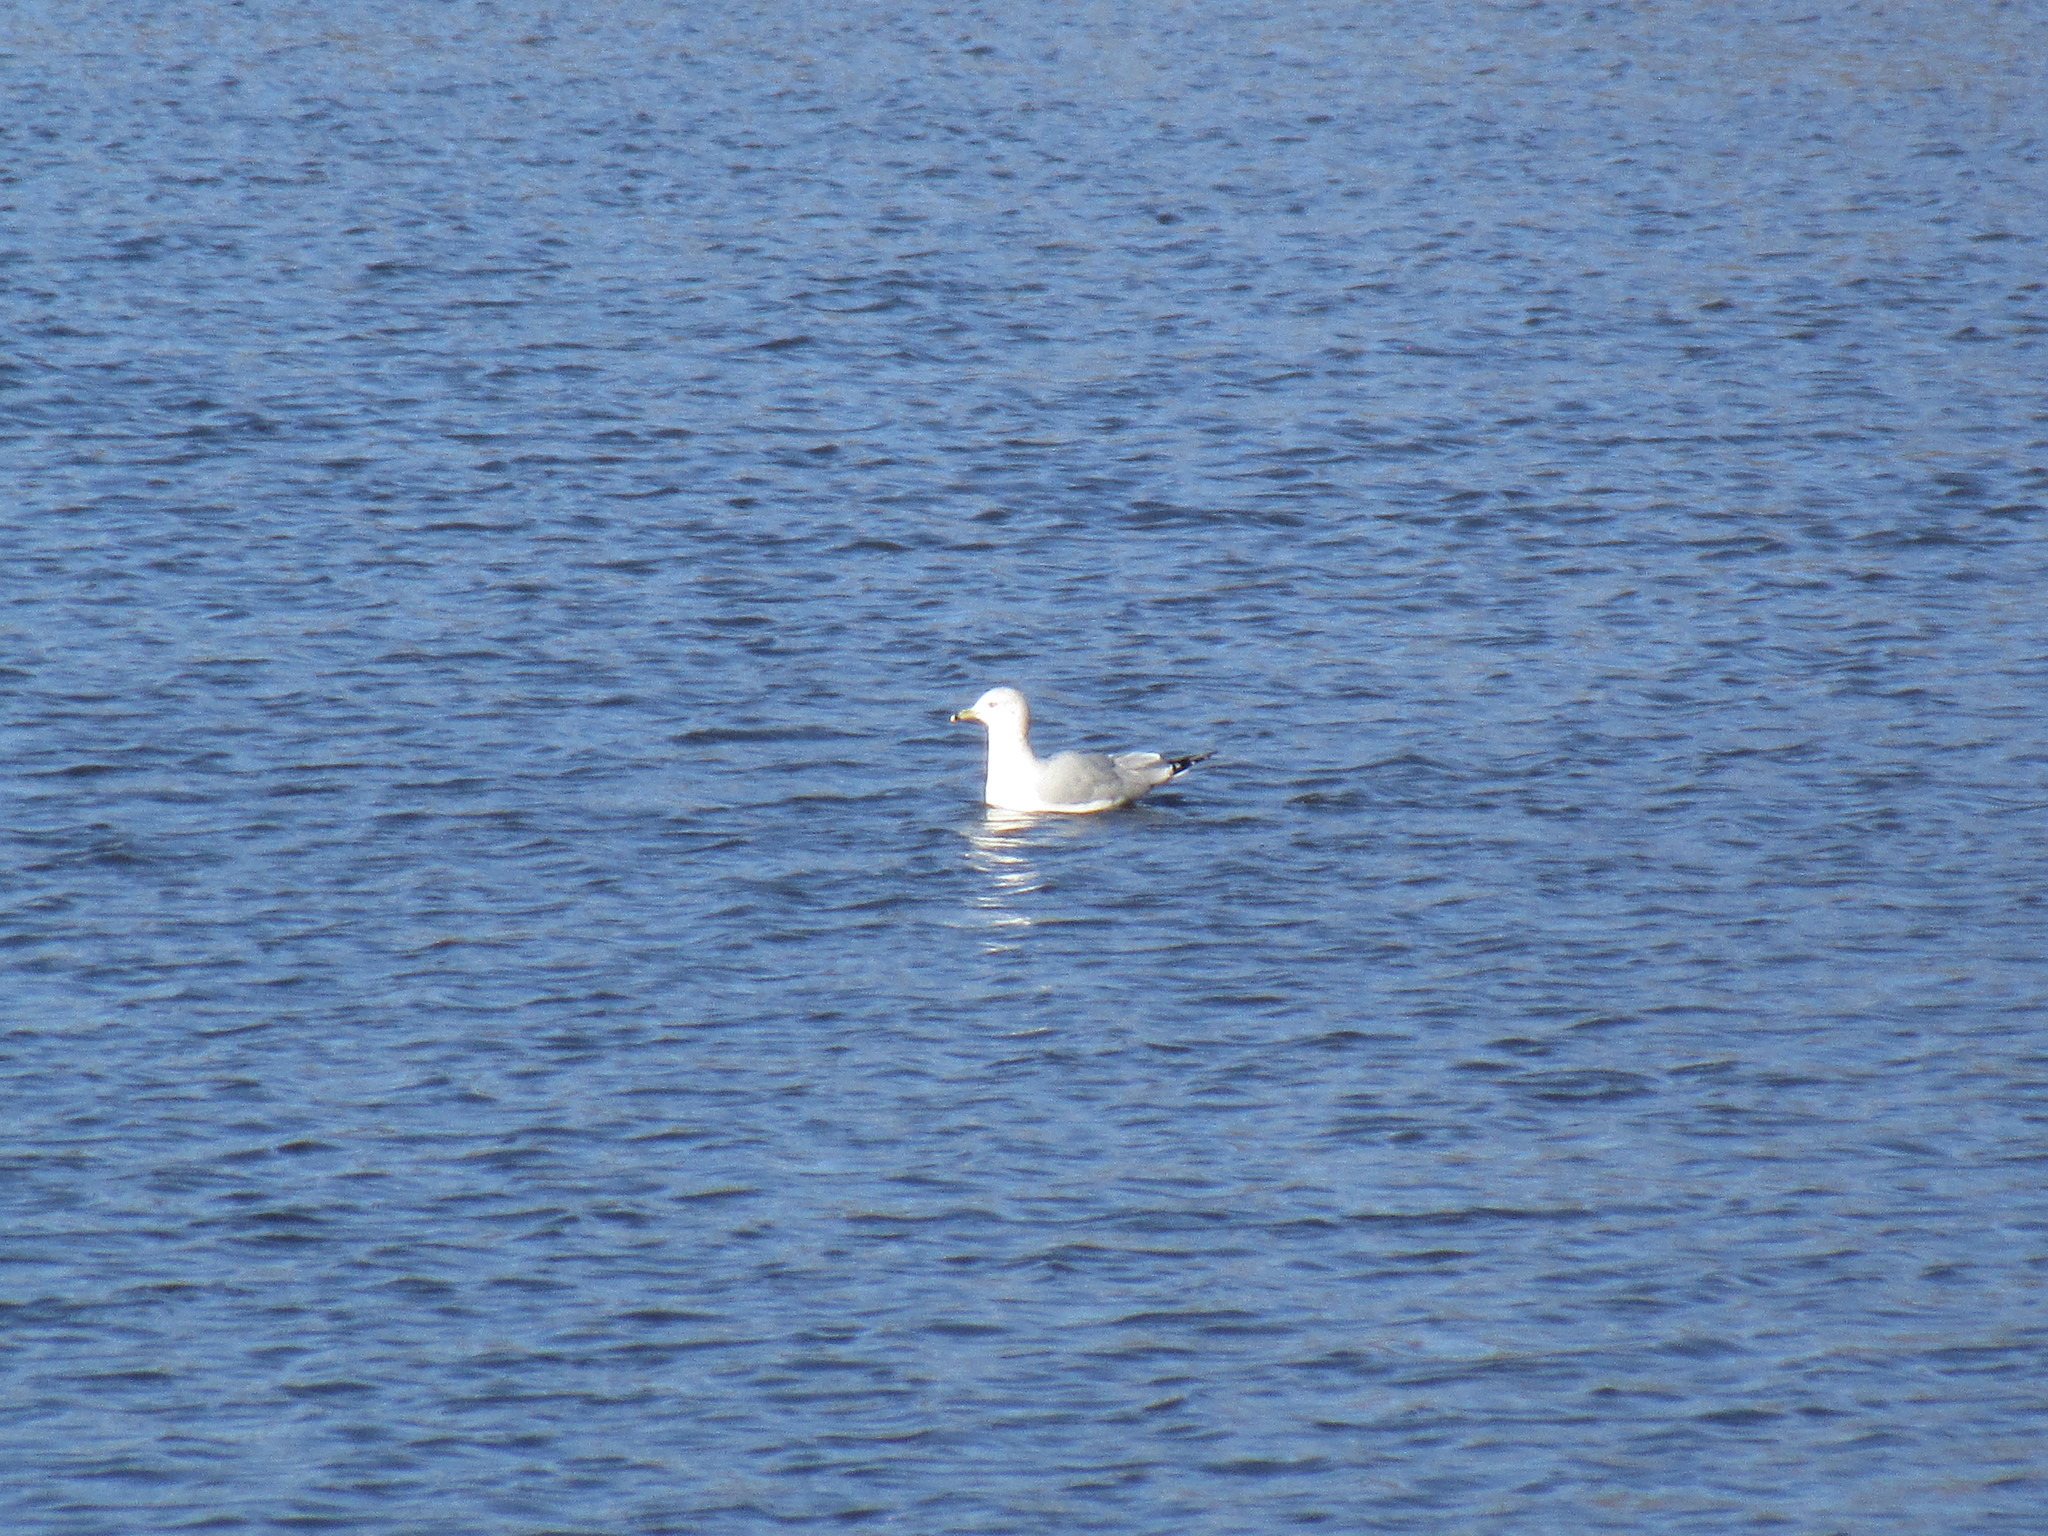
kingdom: Animalia
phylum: Chordata
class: Aves
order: Charadriiformes
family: Laridae
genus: Larus
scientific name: Larus delawarensis
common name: Ring-billed gull
